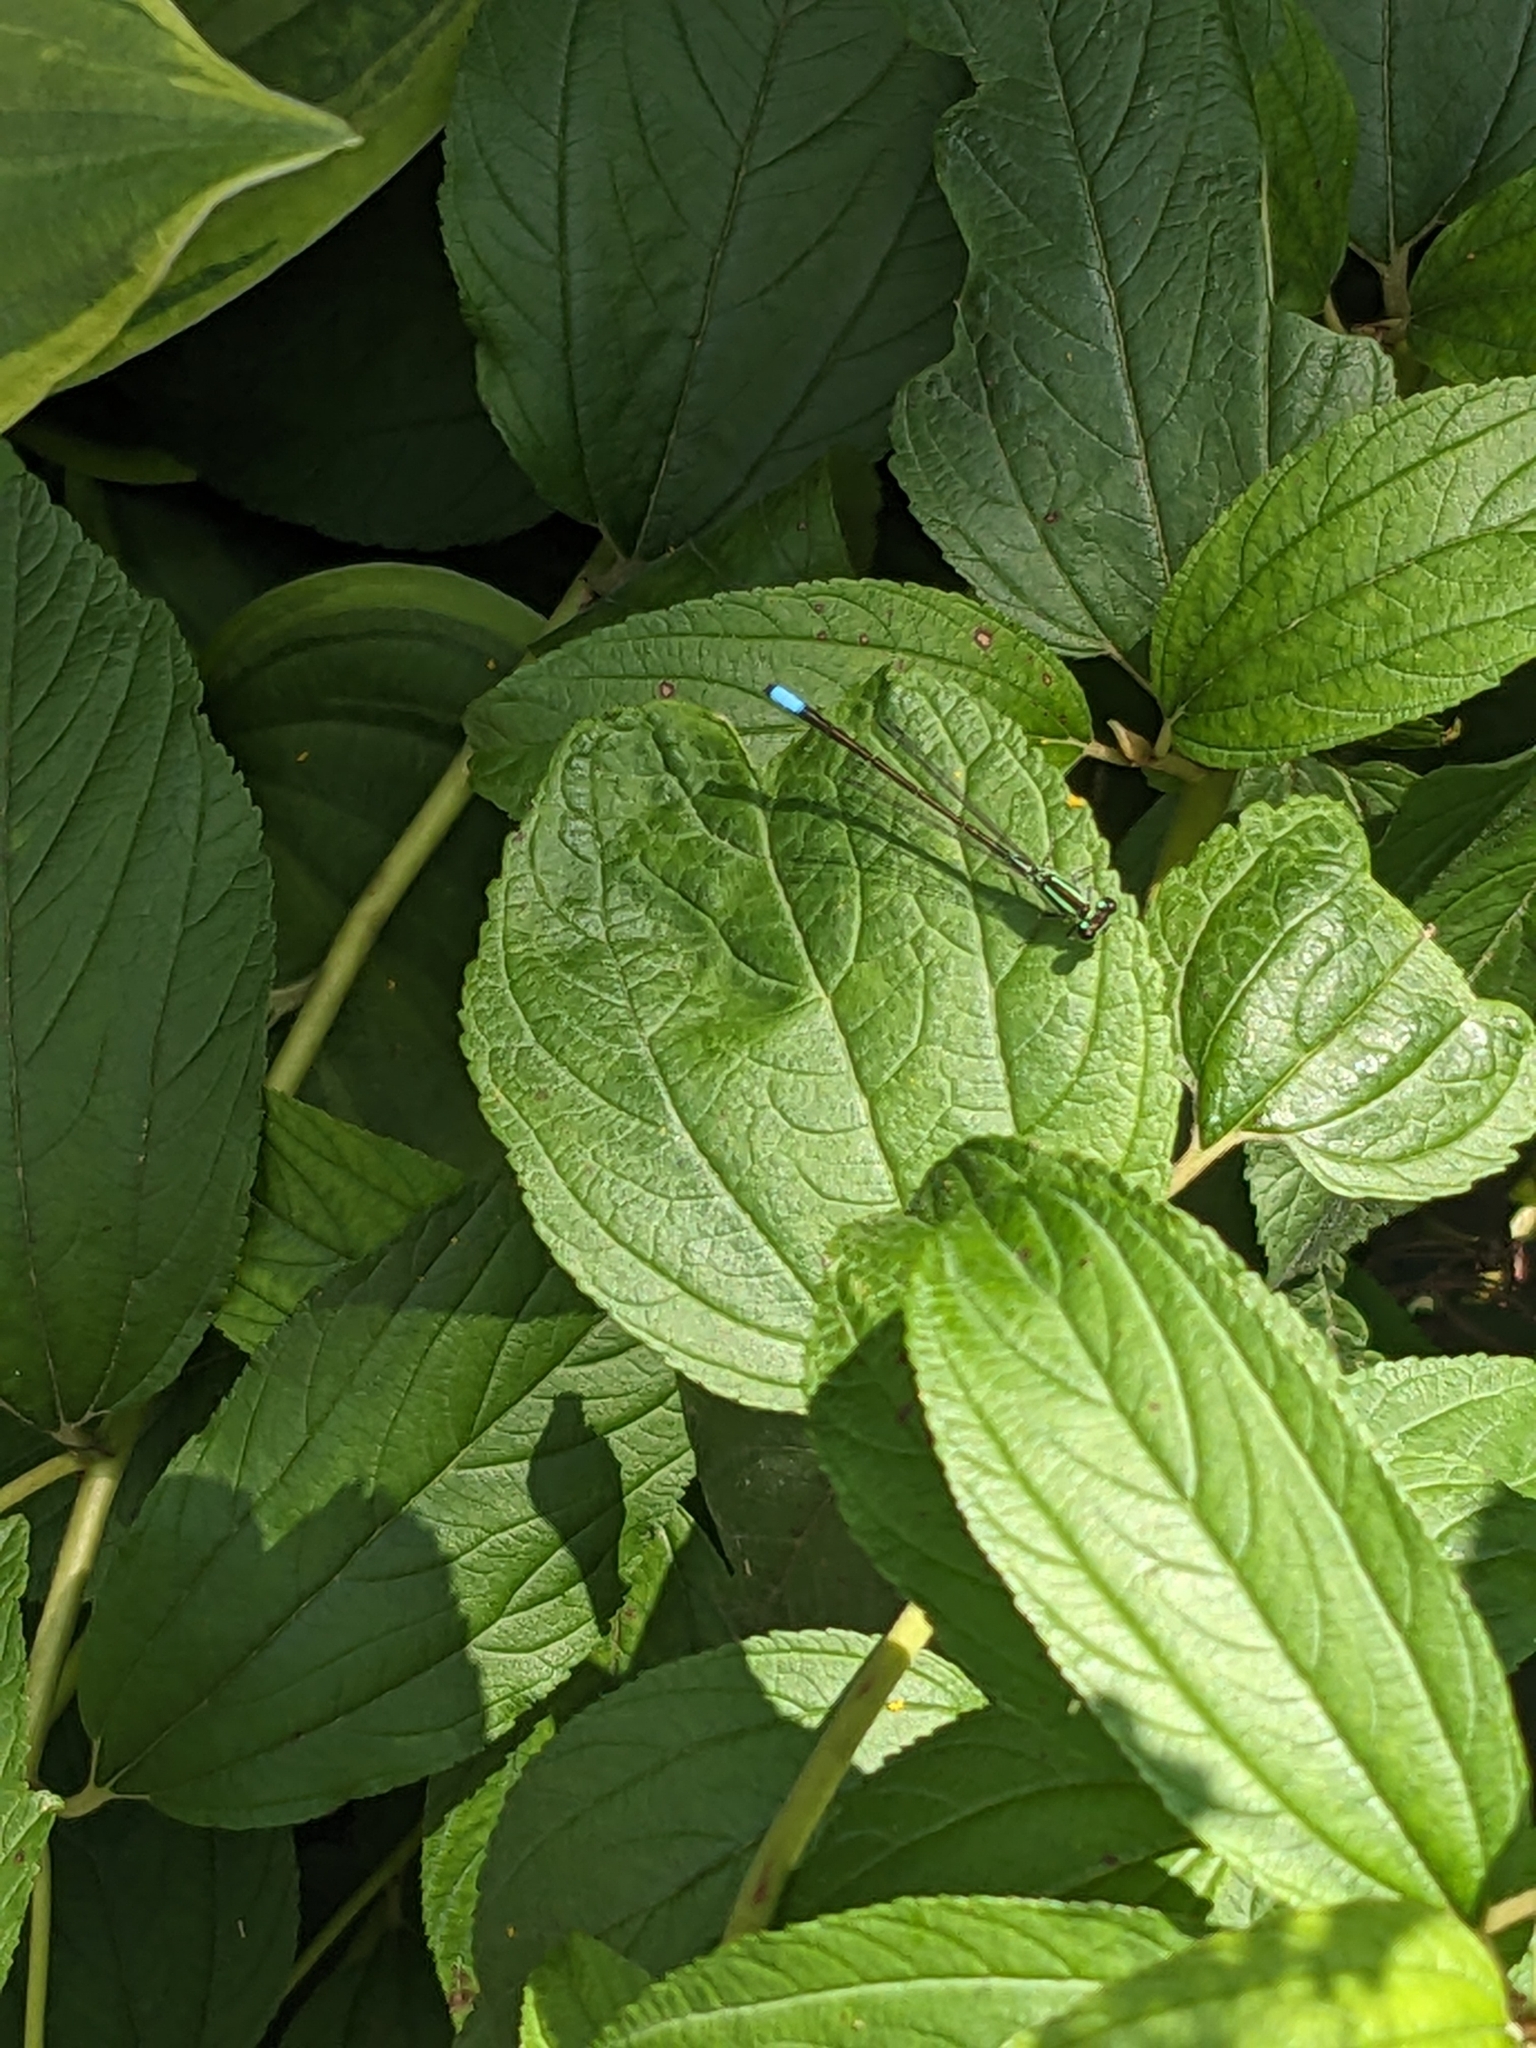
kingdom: Animalia
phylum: Arthropoda
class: Insecta
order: Odonata
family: Coenagrionidae
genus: Ischnura
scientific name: Ischnura verticalis
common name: Eastern forktail
